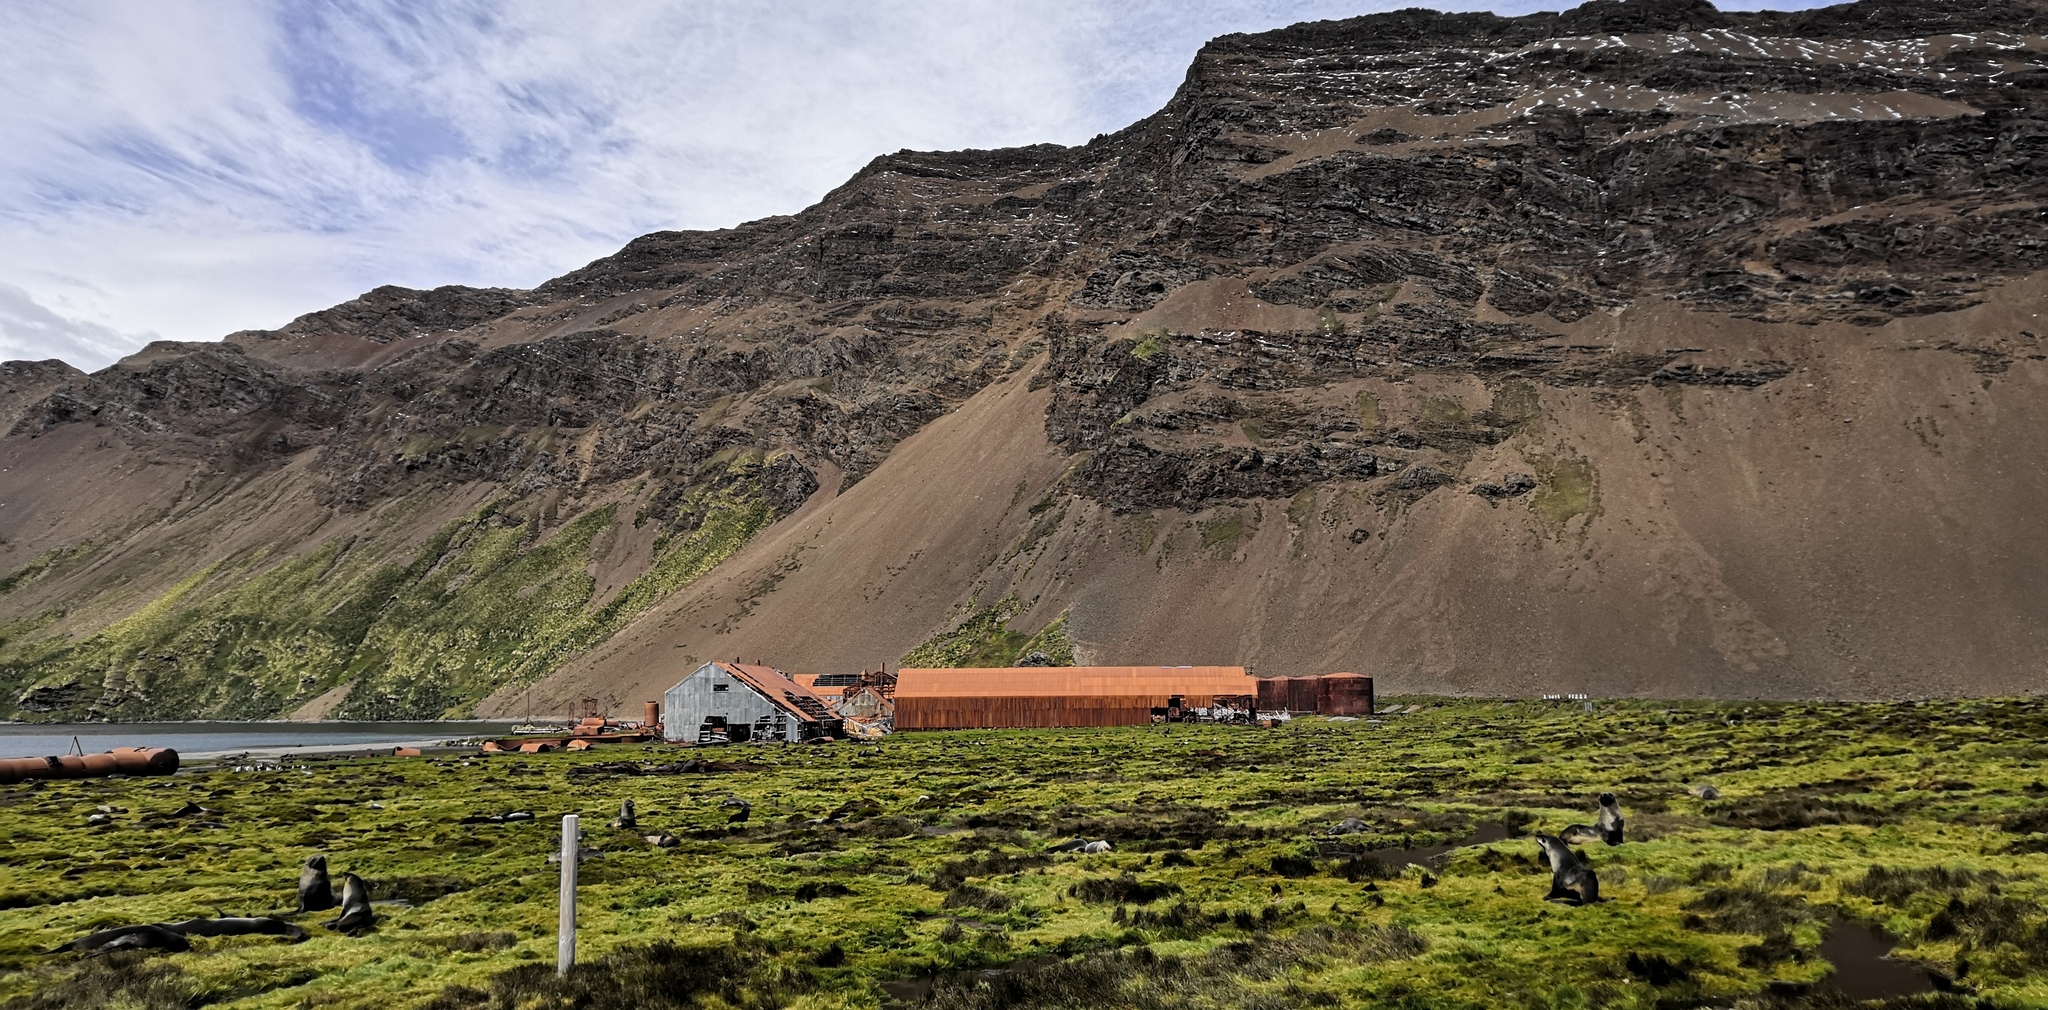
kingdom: Animalia
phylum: Chordata
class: Mammalia
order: Carnivora
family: Otariidae
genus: Arctocephalus
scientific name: Arctocephalus gazella
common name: Antarctic fur seal
